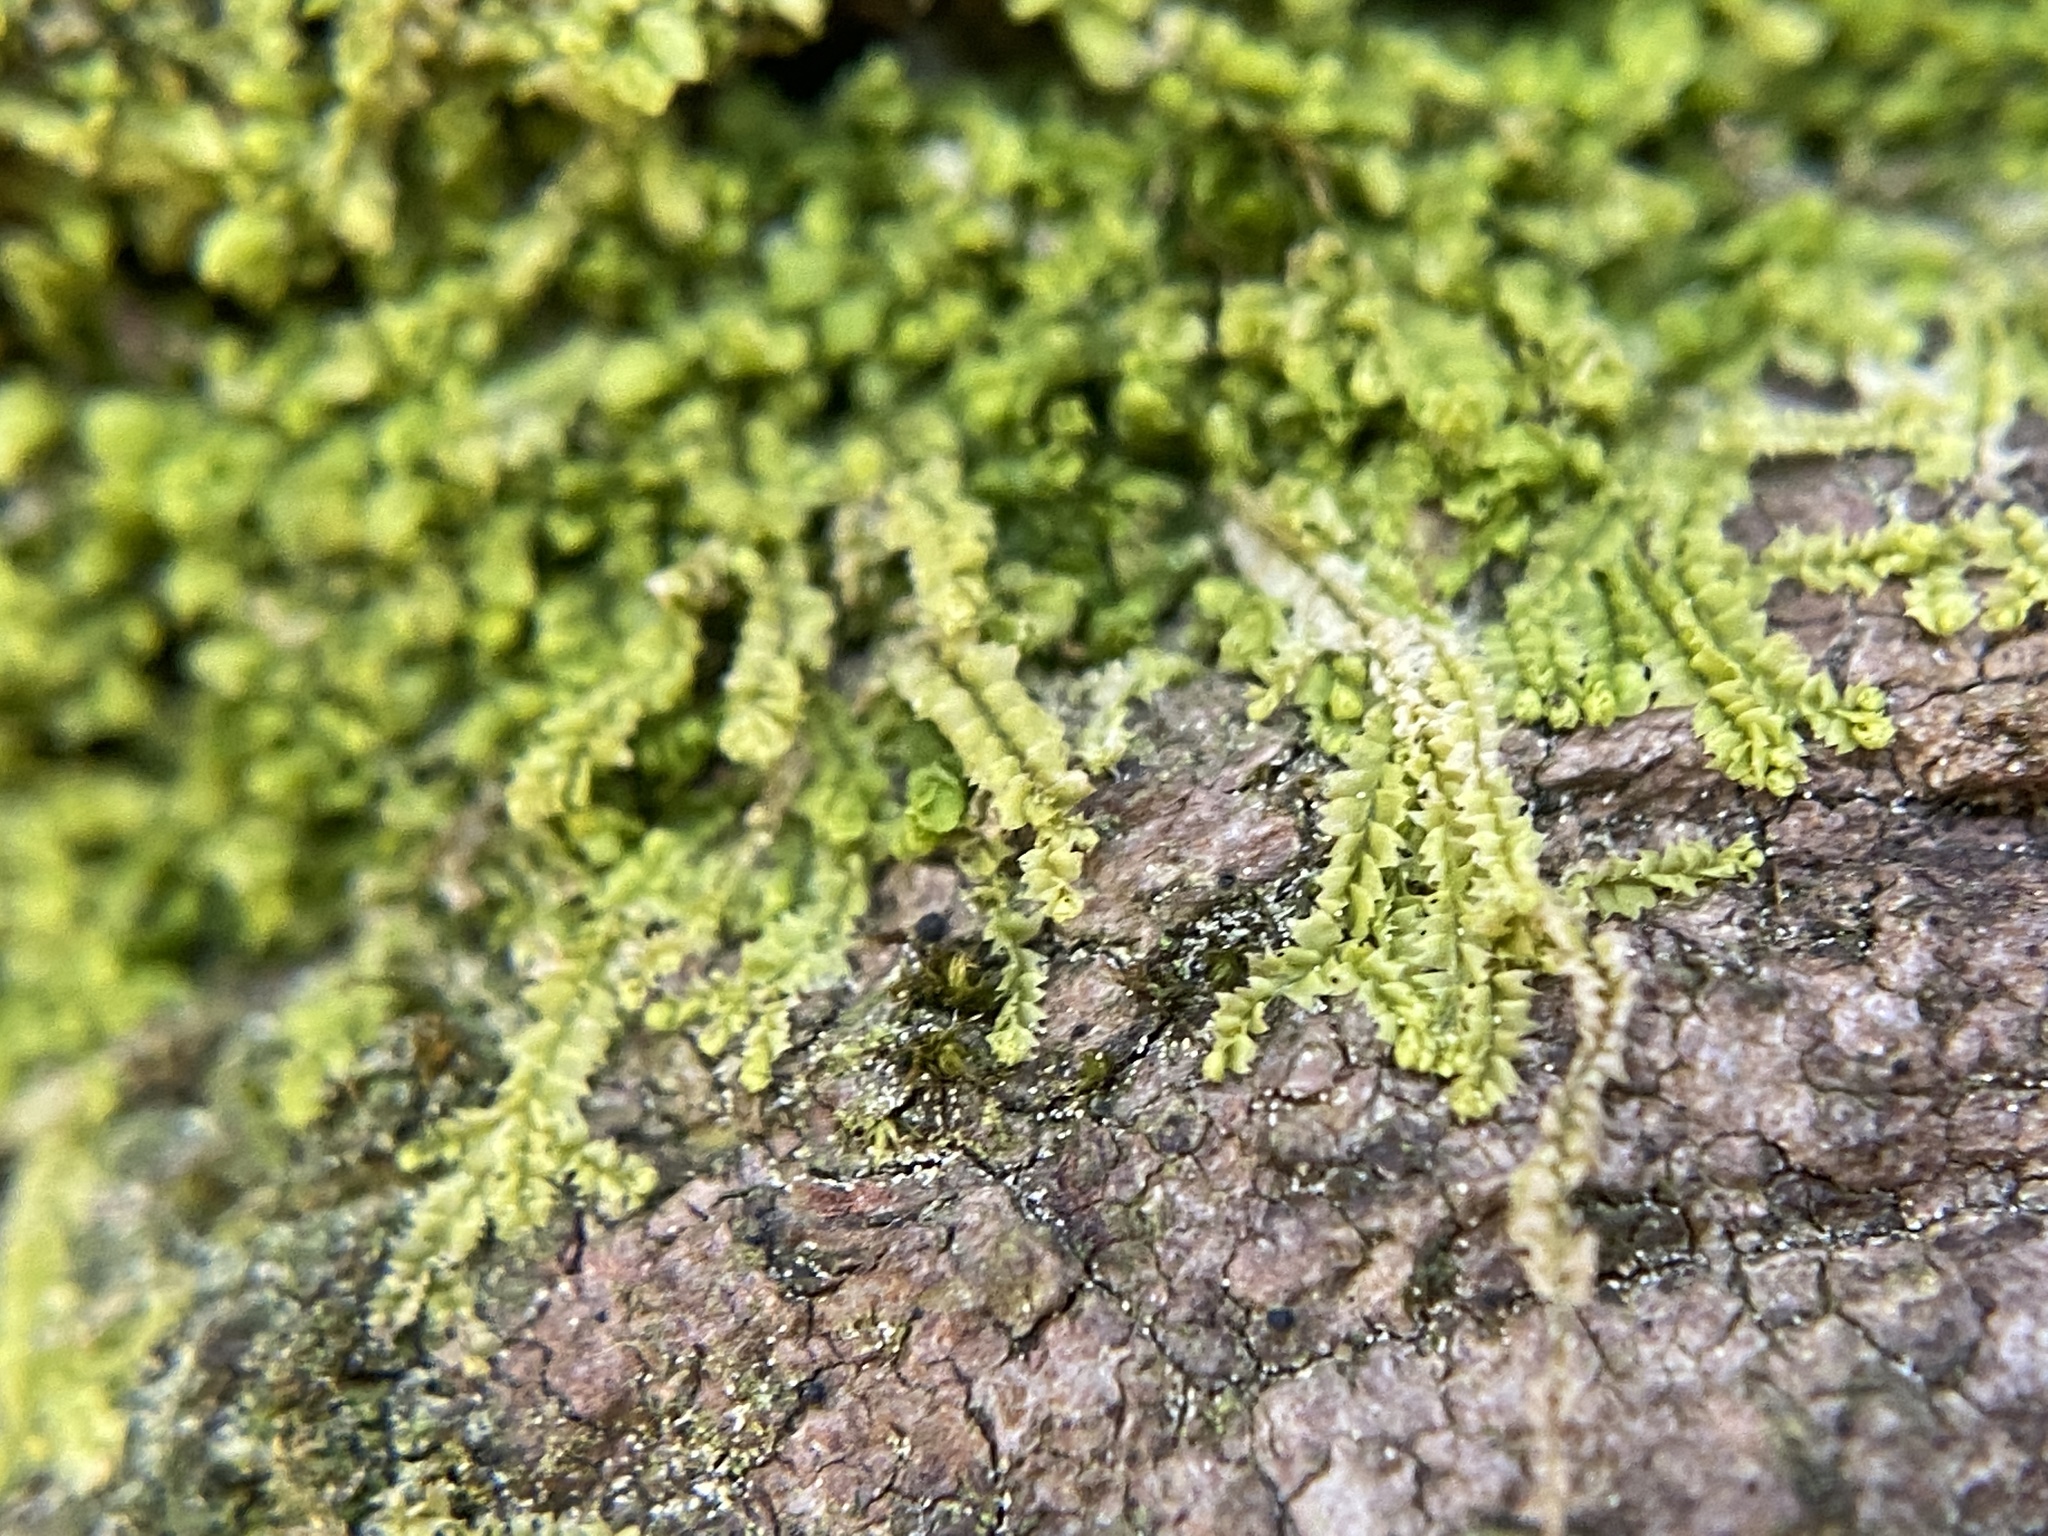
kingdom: Plantae
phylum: Marchantiophyta
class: Jungermanniopsida
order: Jungermanniales
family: Lophocoleaceae
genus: Lophocolea
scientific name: Lophocolea heterophylla
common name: Variable-leaved crestwort
